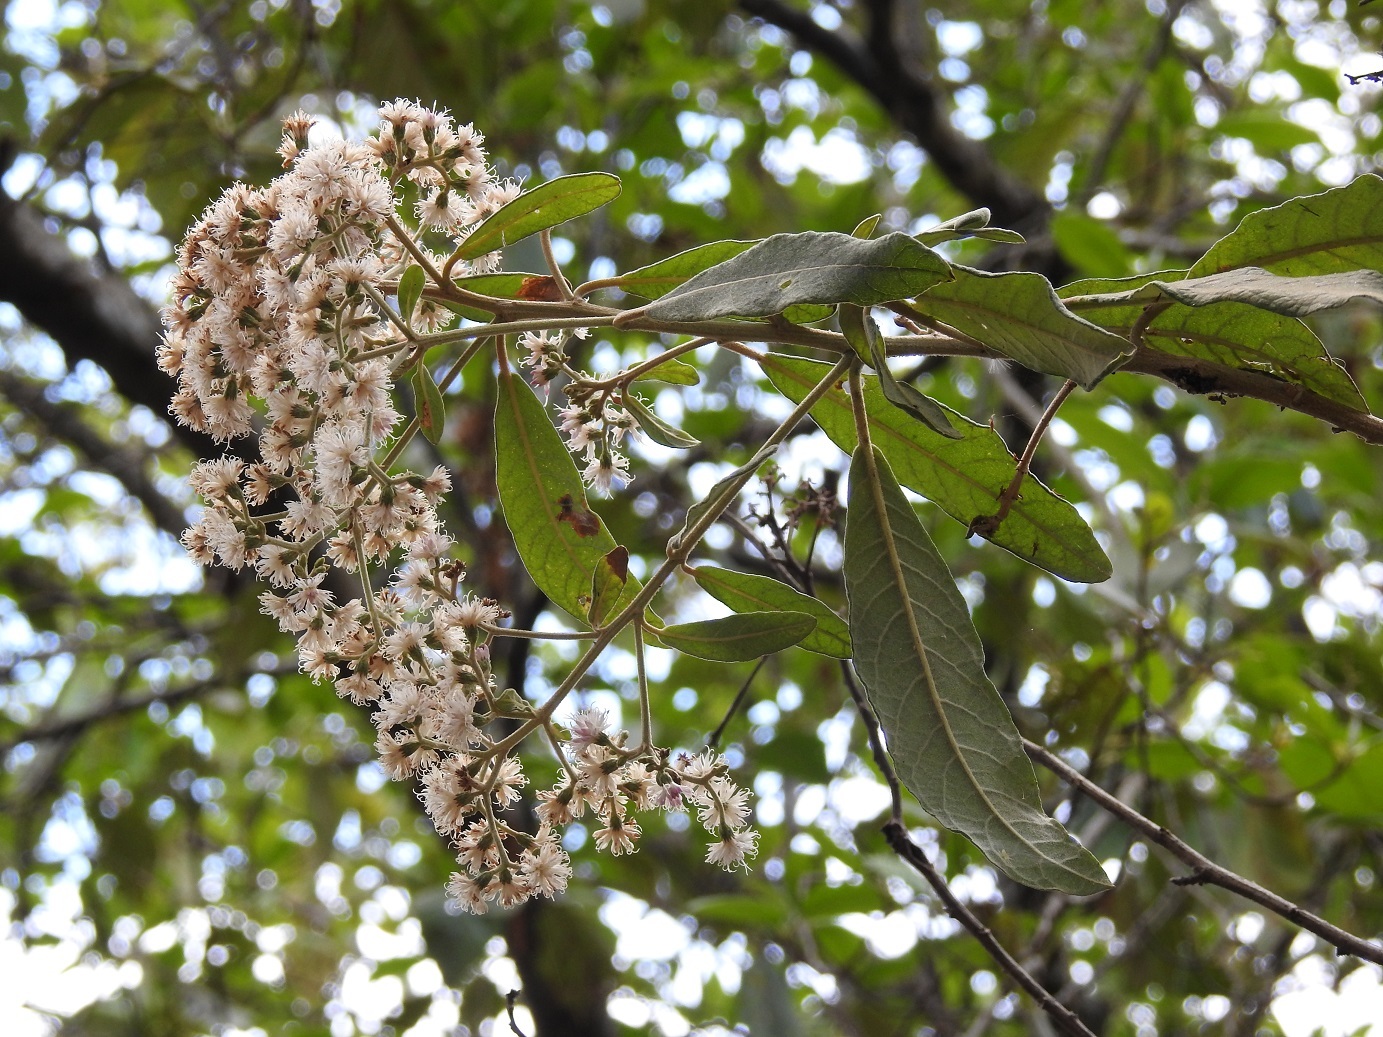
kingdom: Plantae
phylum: Tracheophyta
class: Magnoliopsida
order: Asterales
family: Asteraceae
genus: Vernonanthura
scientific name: Vernonanthura patens
